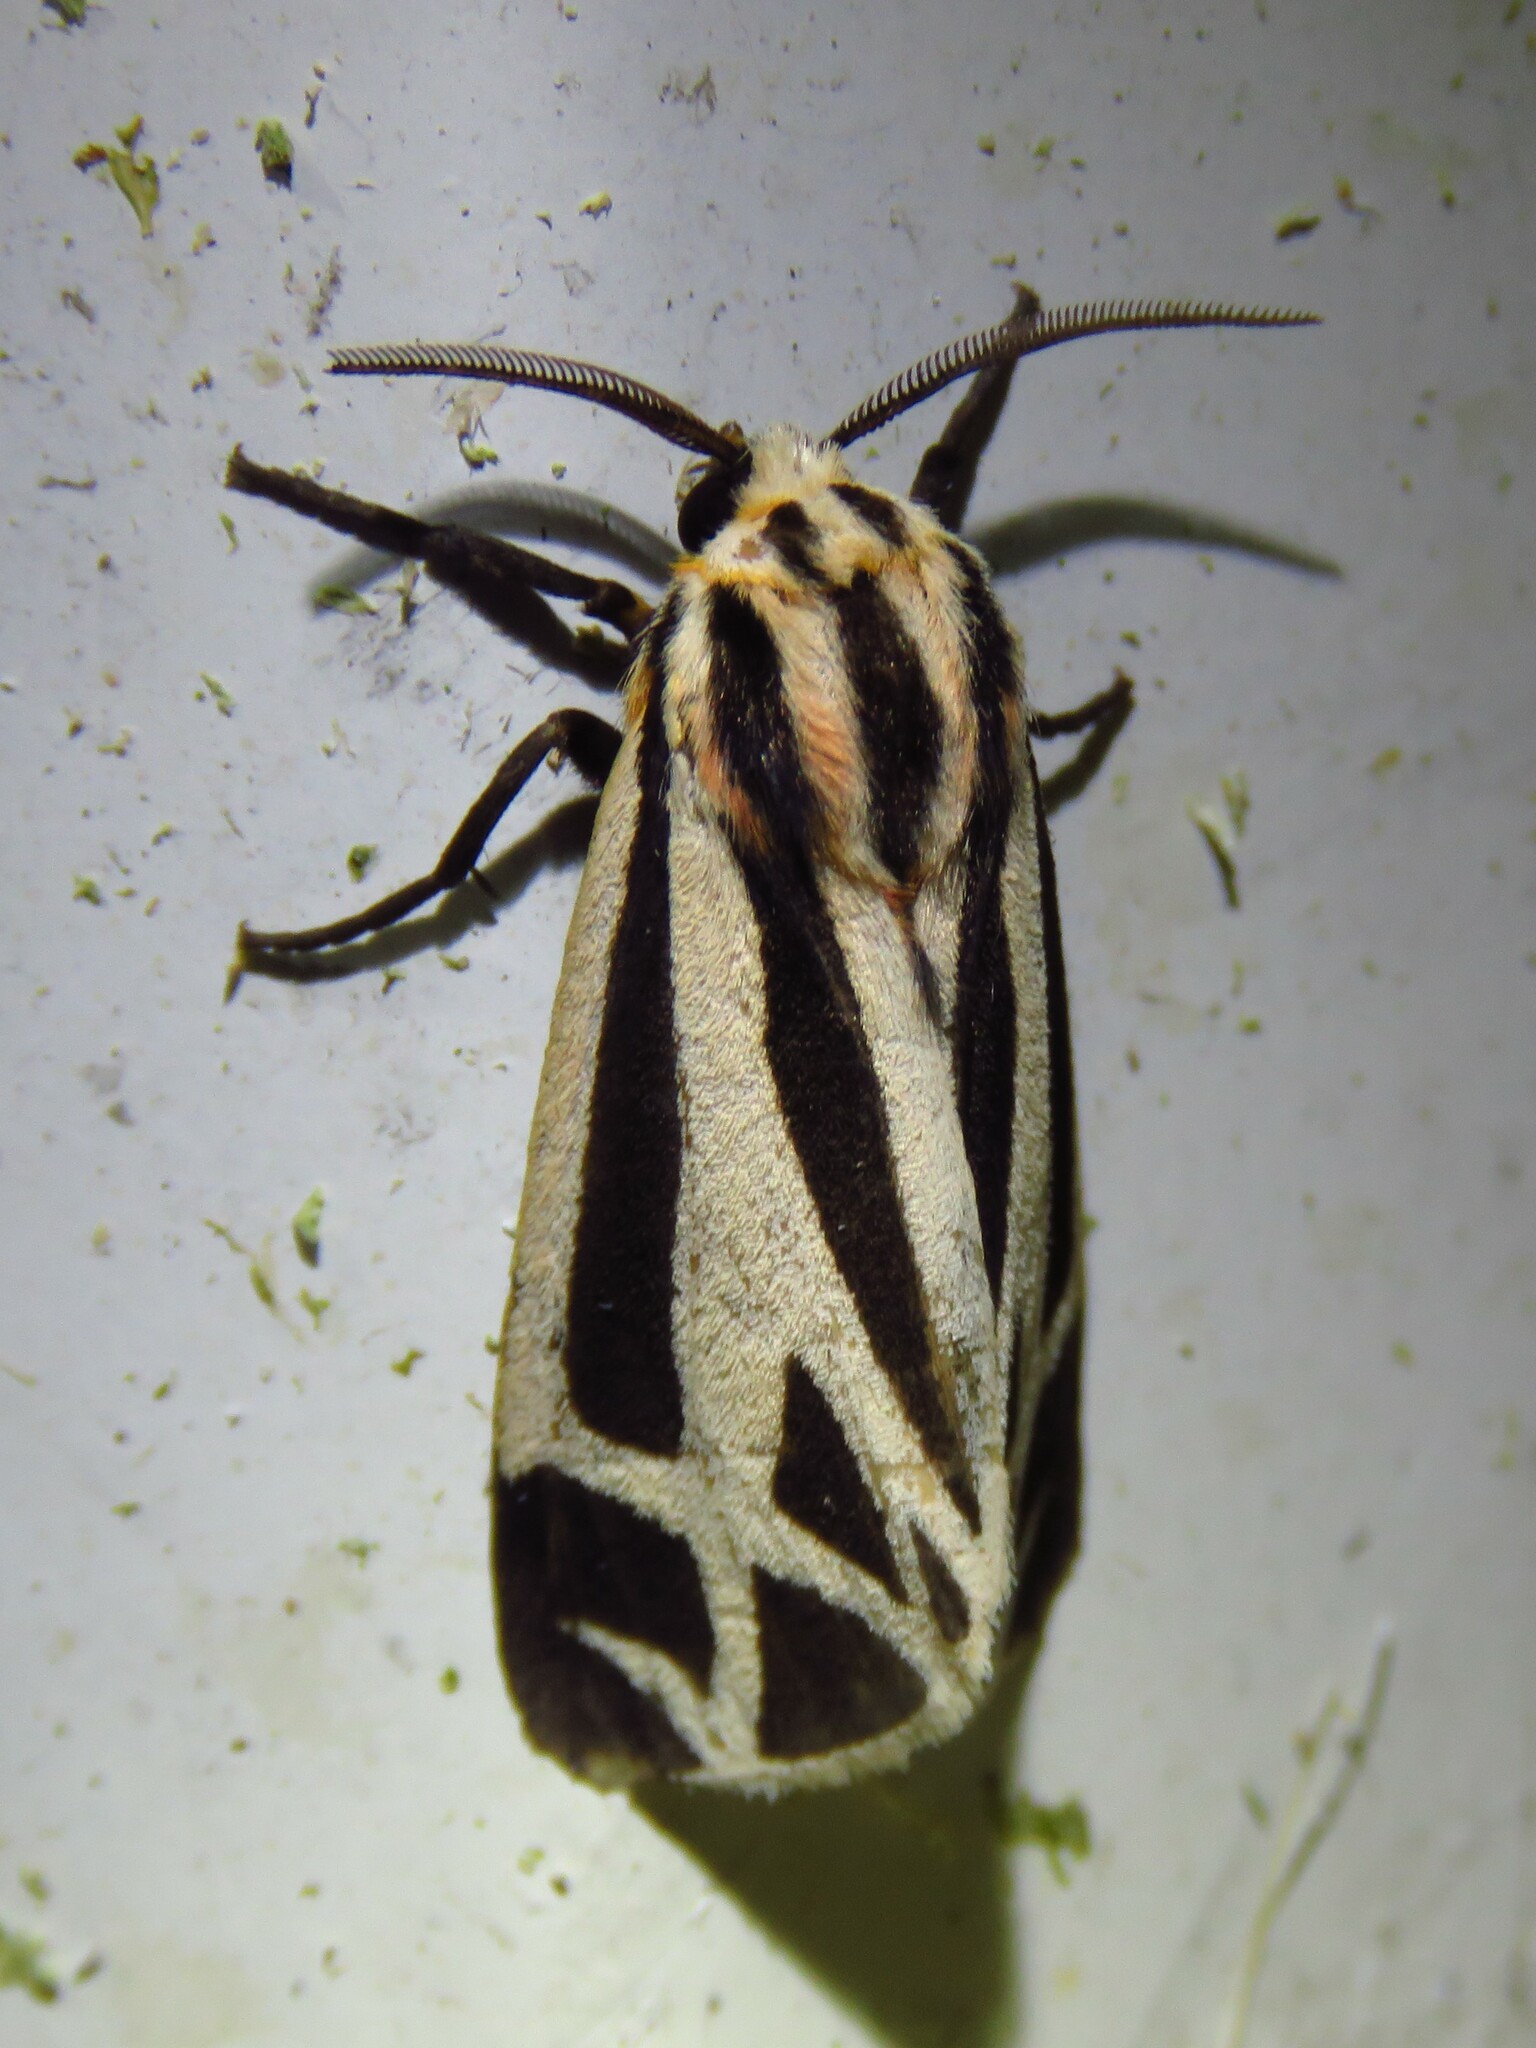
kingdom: Animalia
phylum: Arthropoda
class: Insecta
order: Lepidoptera
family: Erebidae
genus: Apantesis
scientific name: Apantesis phalerata
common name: Harnessed tiger moth
